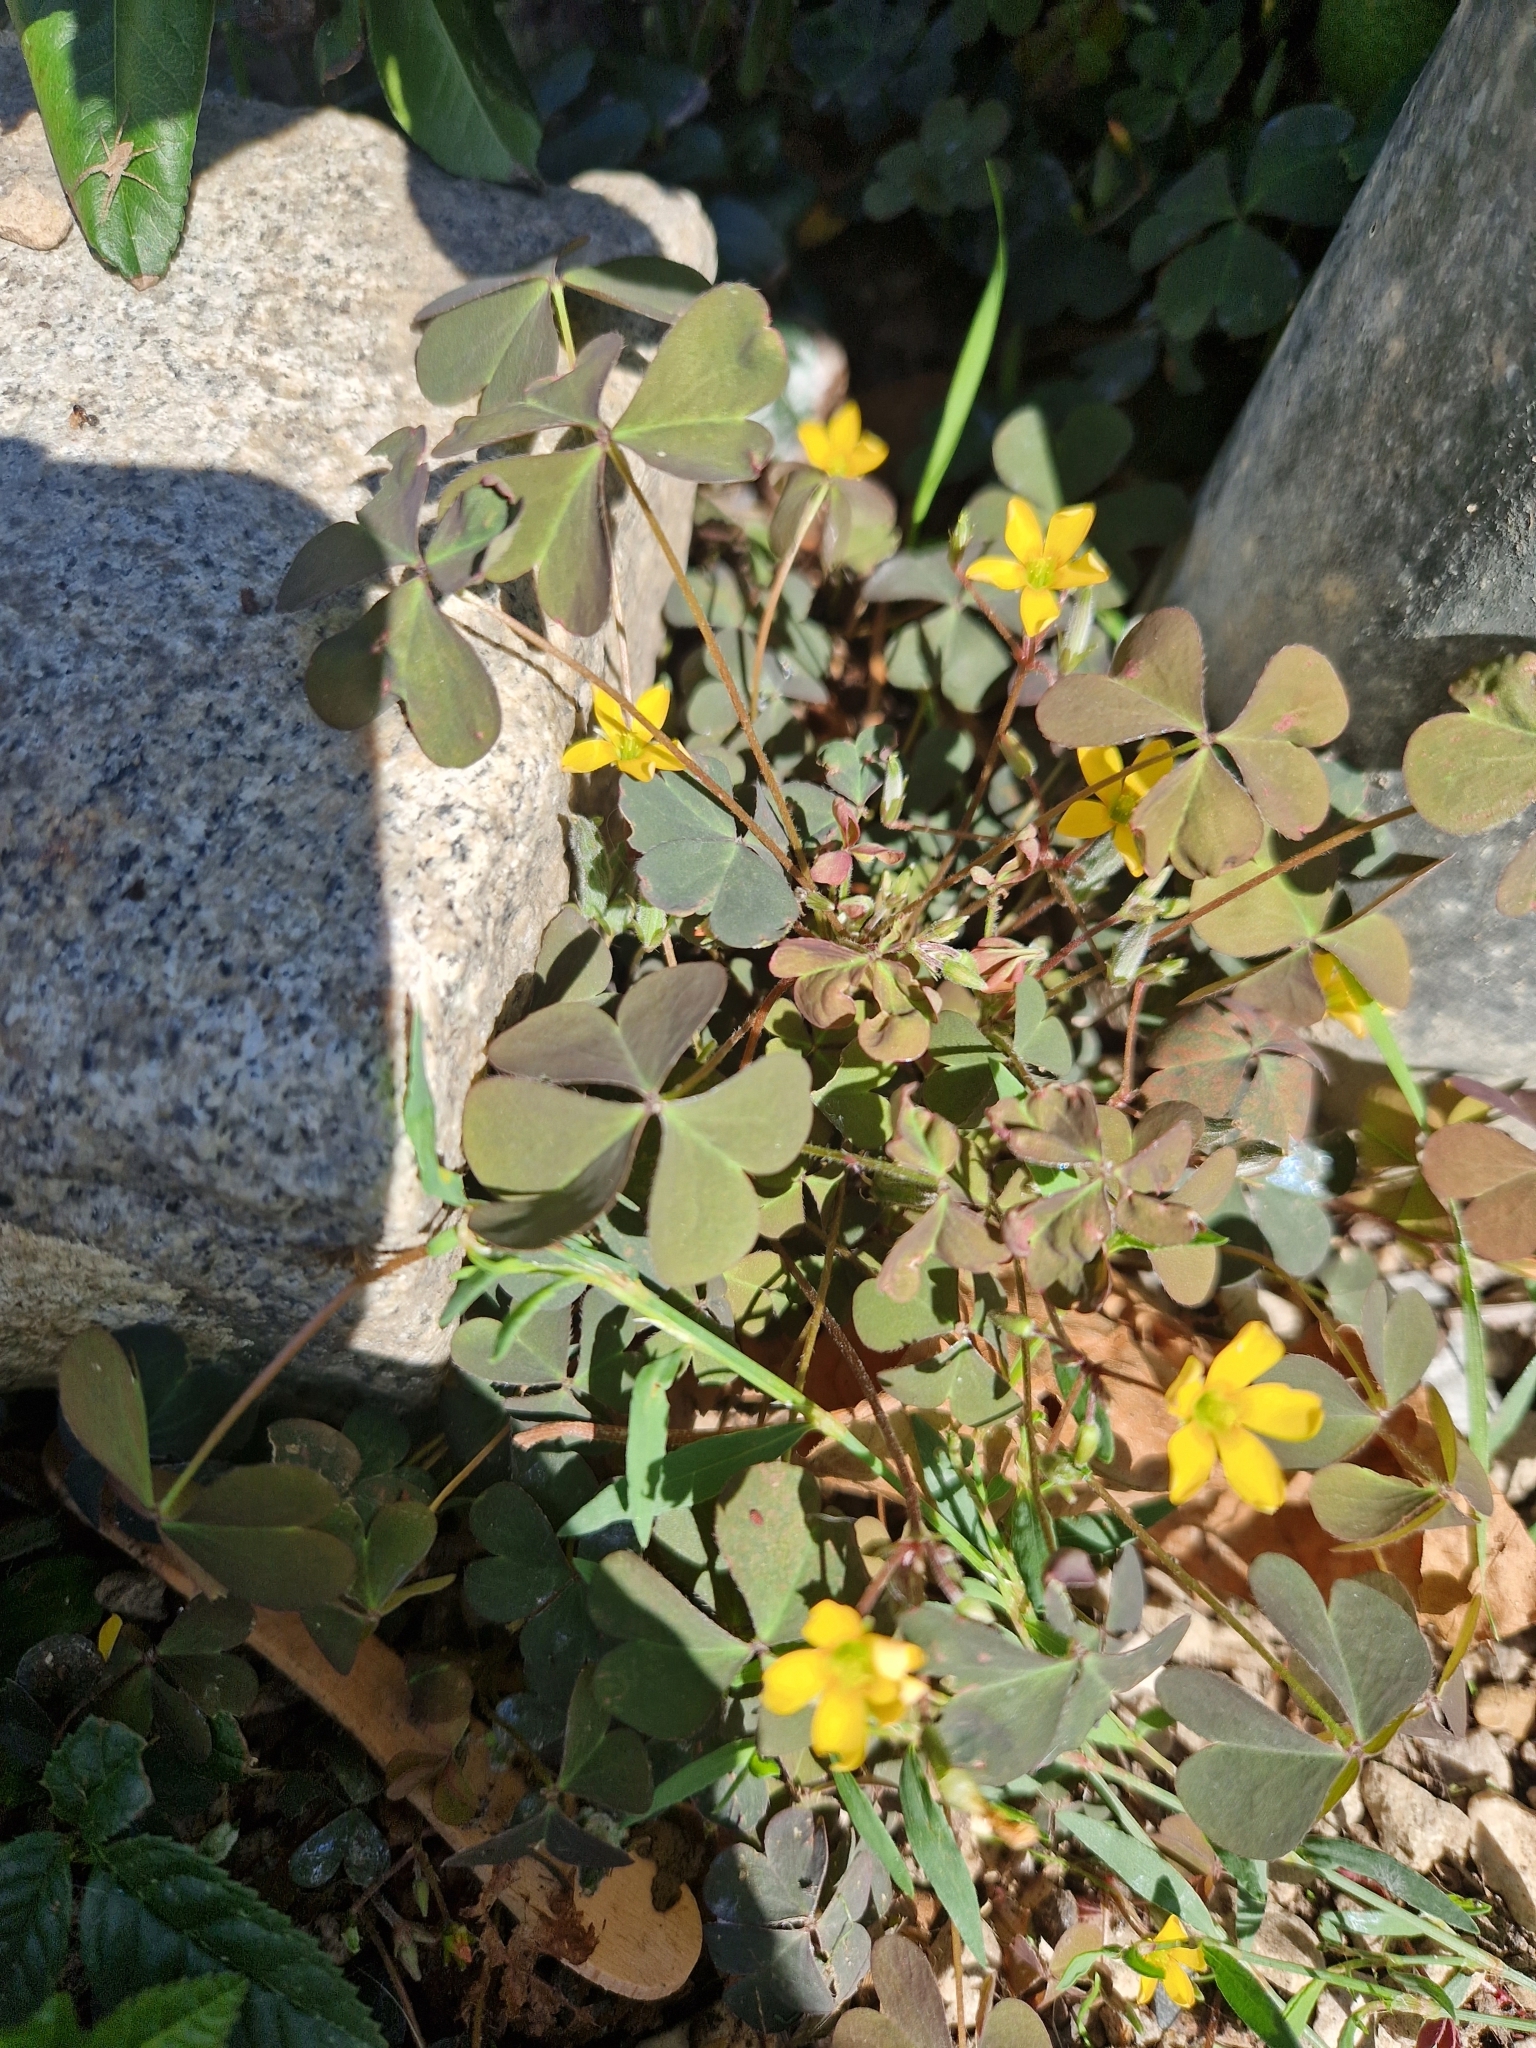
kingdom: Plantae
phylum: Tracheophyta
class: Magnoliopsida
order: Oxalidales
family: Oxalidaceae
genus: Oxalis
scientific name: Oxalis corniculata
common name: Procumbent yellow-sorrel
